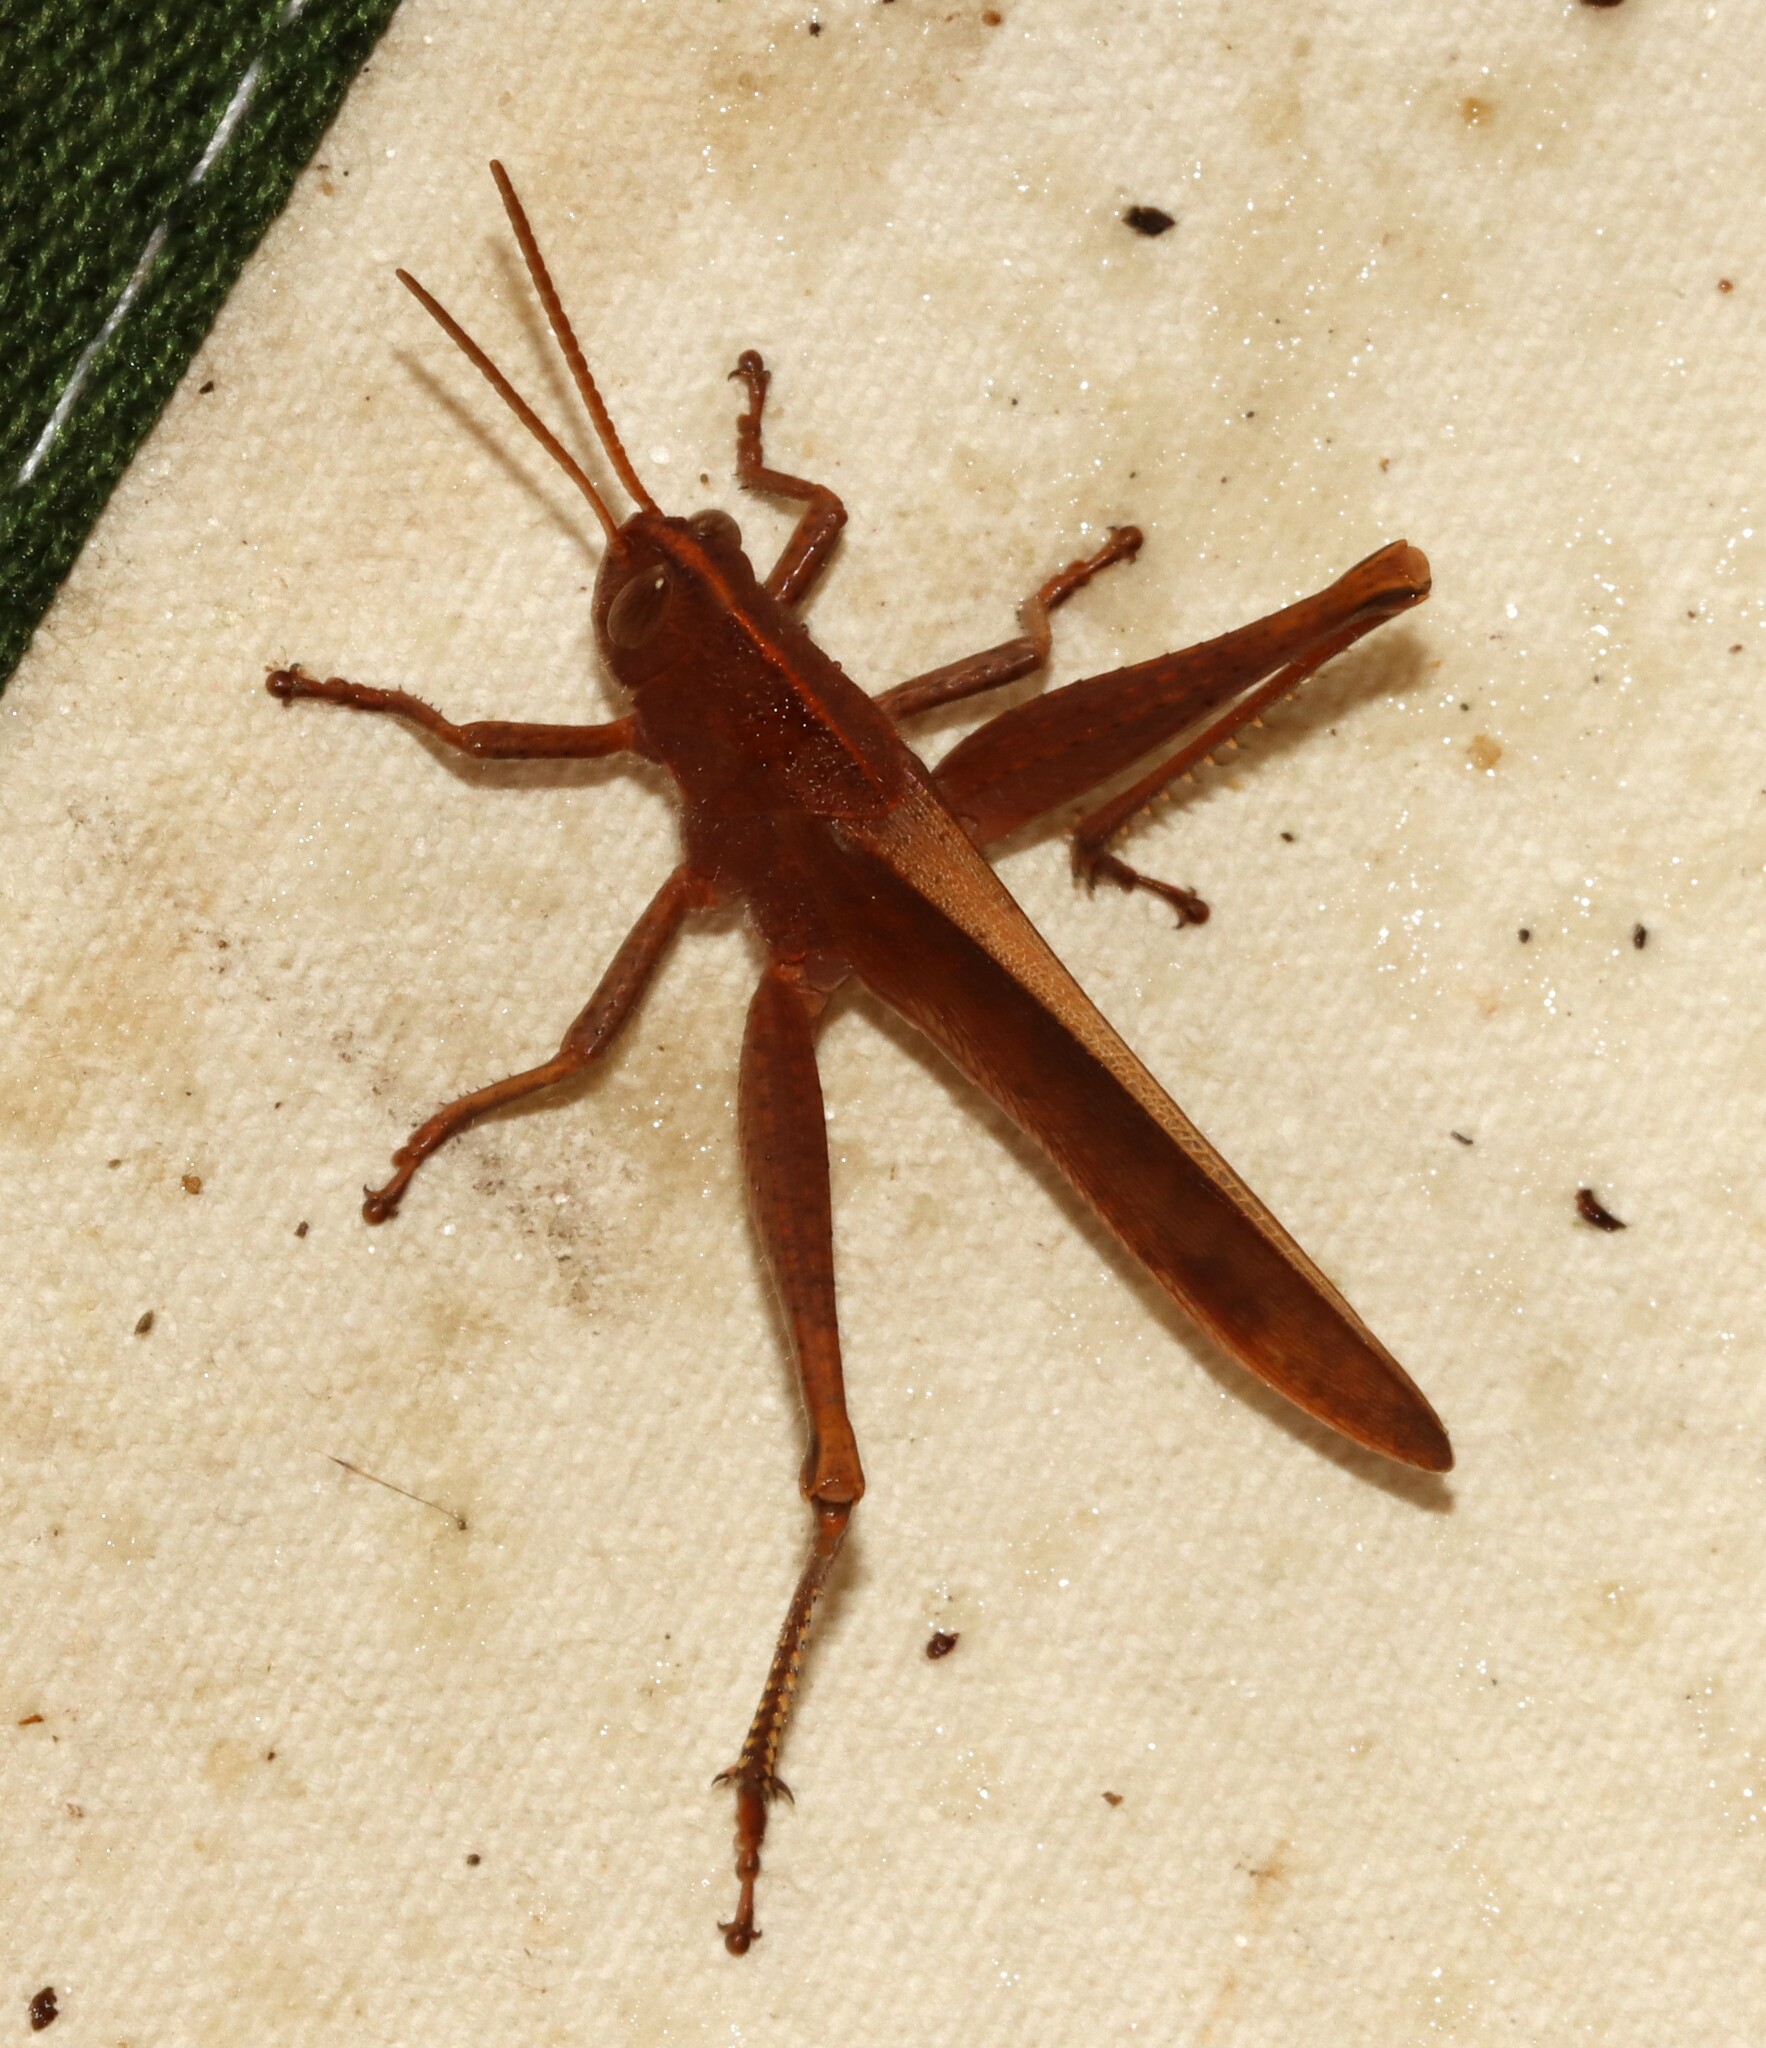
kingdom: Animalia
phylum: Arthropoda
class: Insecta
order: Orthoptera
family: Acrididae
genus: Schistocerca
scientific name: Schistocerca damnifica
